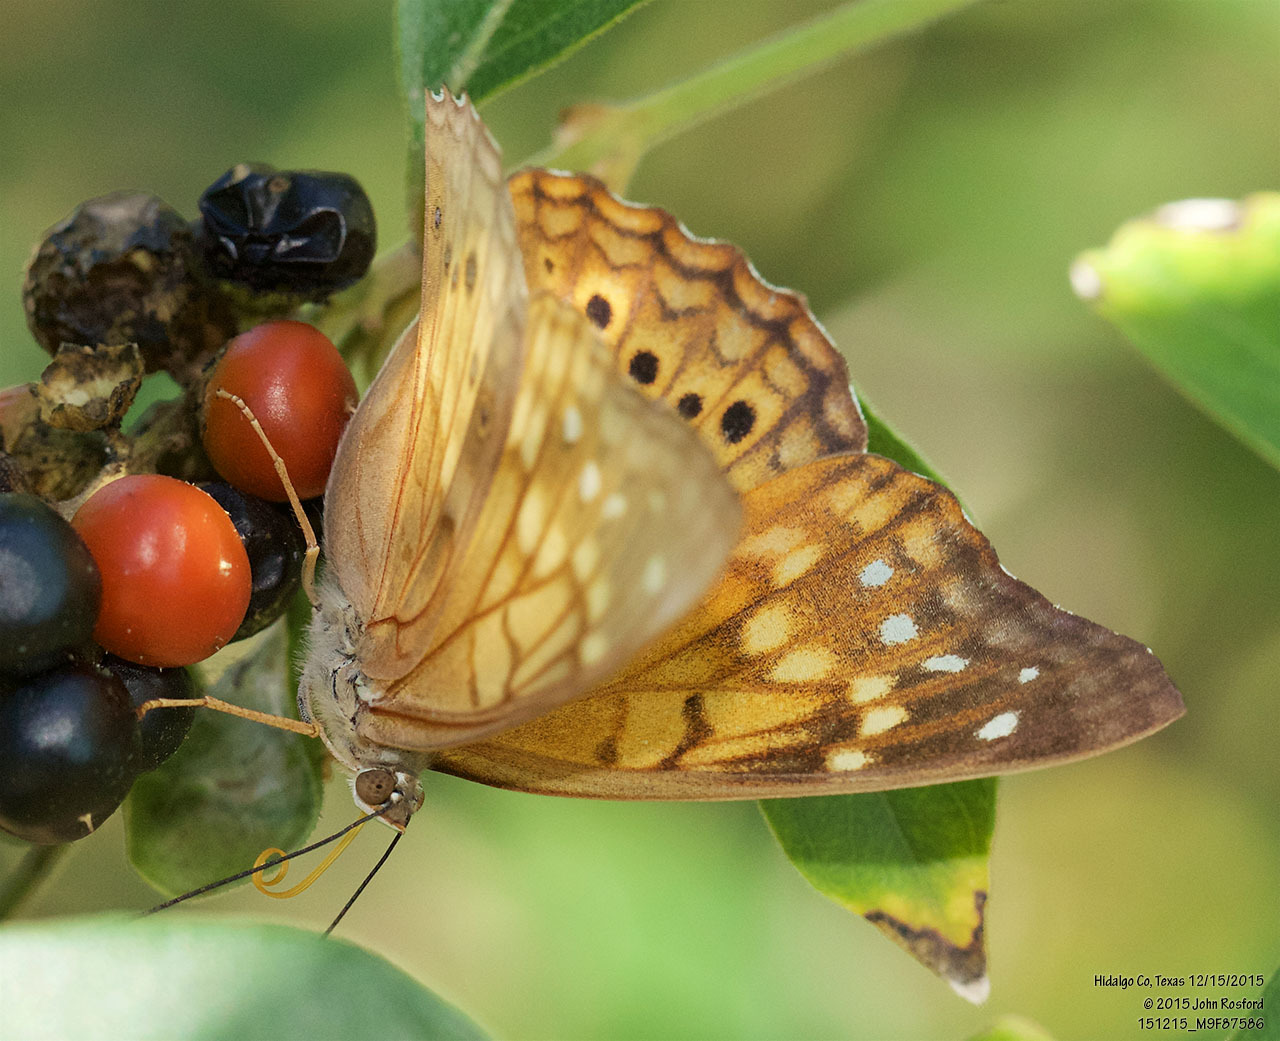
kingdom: Animalia
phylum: Arthropoda
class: Insecta
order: Lepidoptera
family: Nymphalidae
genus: Asterocampa
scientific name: Asterocampa clyton
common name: Tawny emperor
